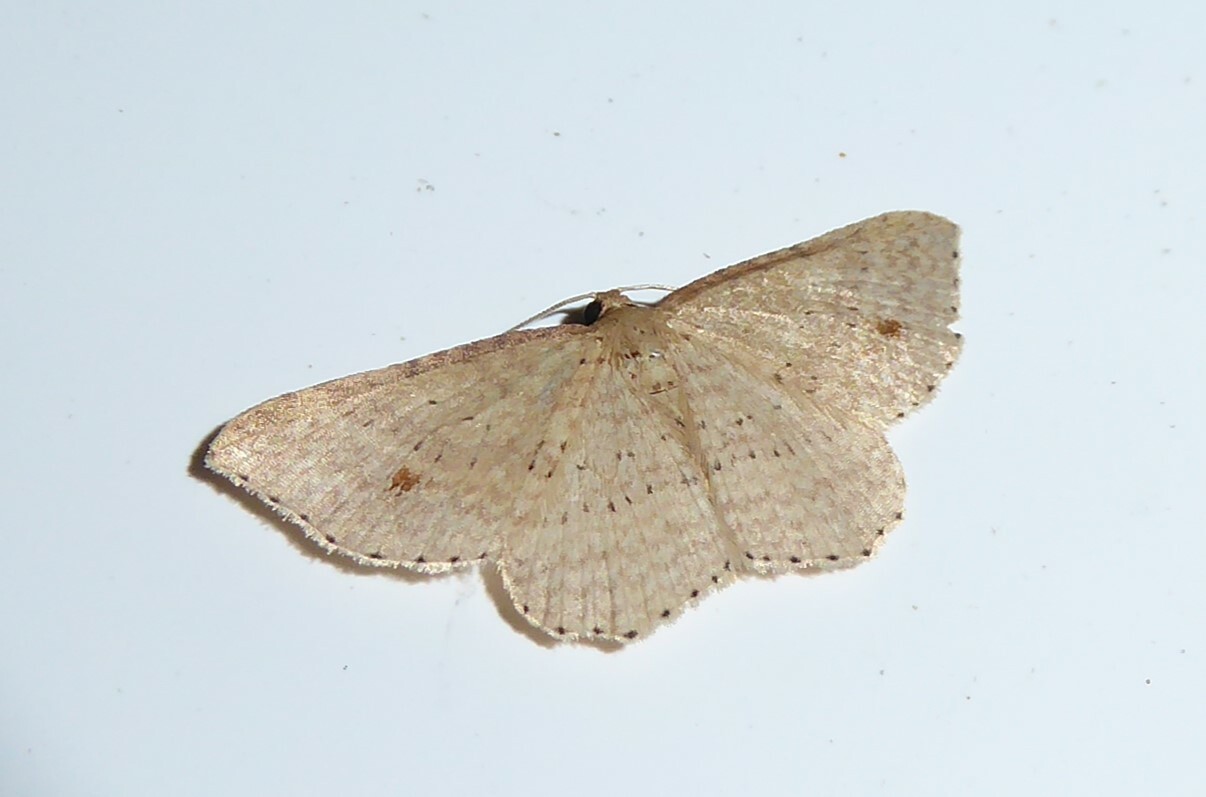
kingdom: Animalia
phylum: Arthropoda
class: Insecta
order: Lepidoptera
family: Geometridae
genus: Epicyme
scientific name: Epicyme rubropunctaria
